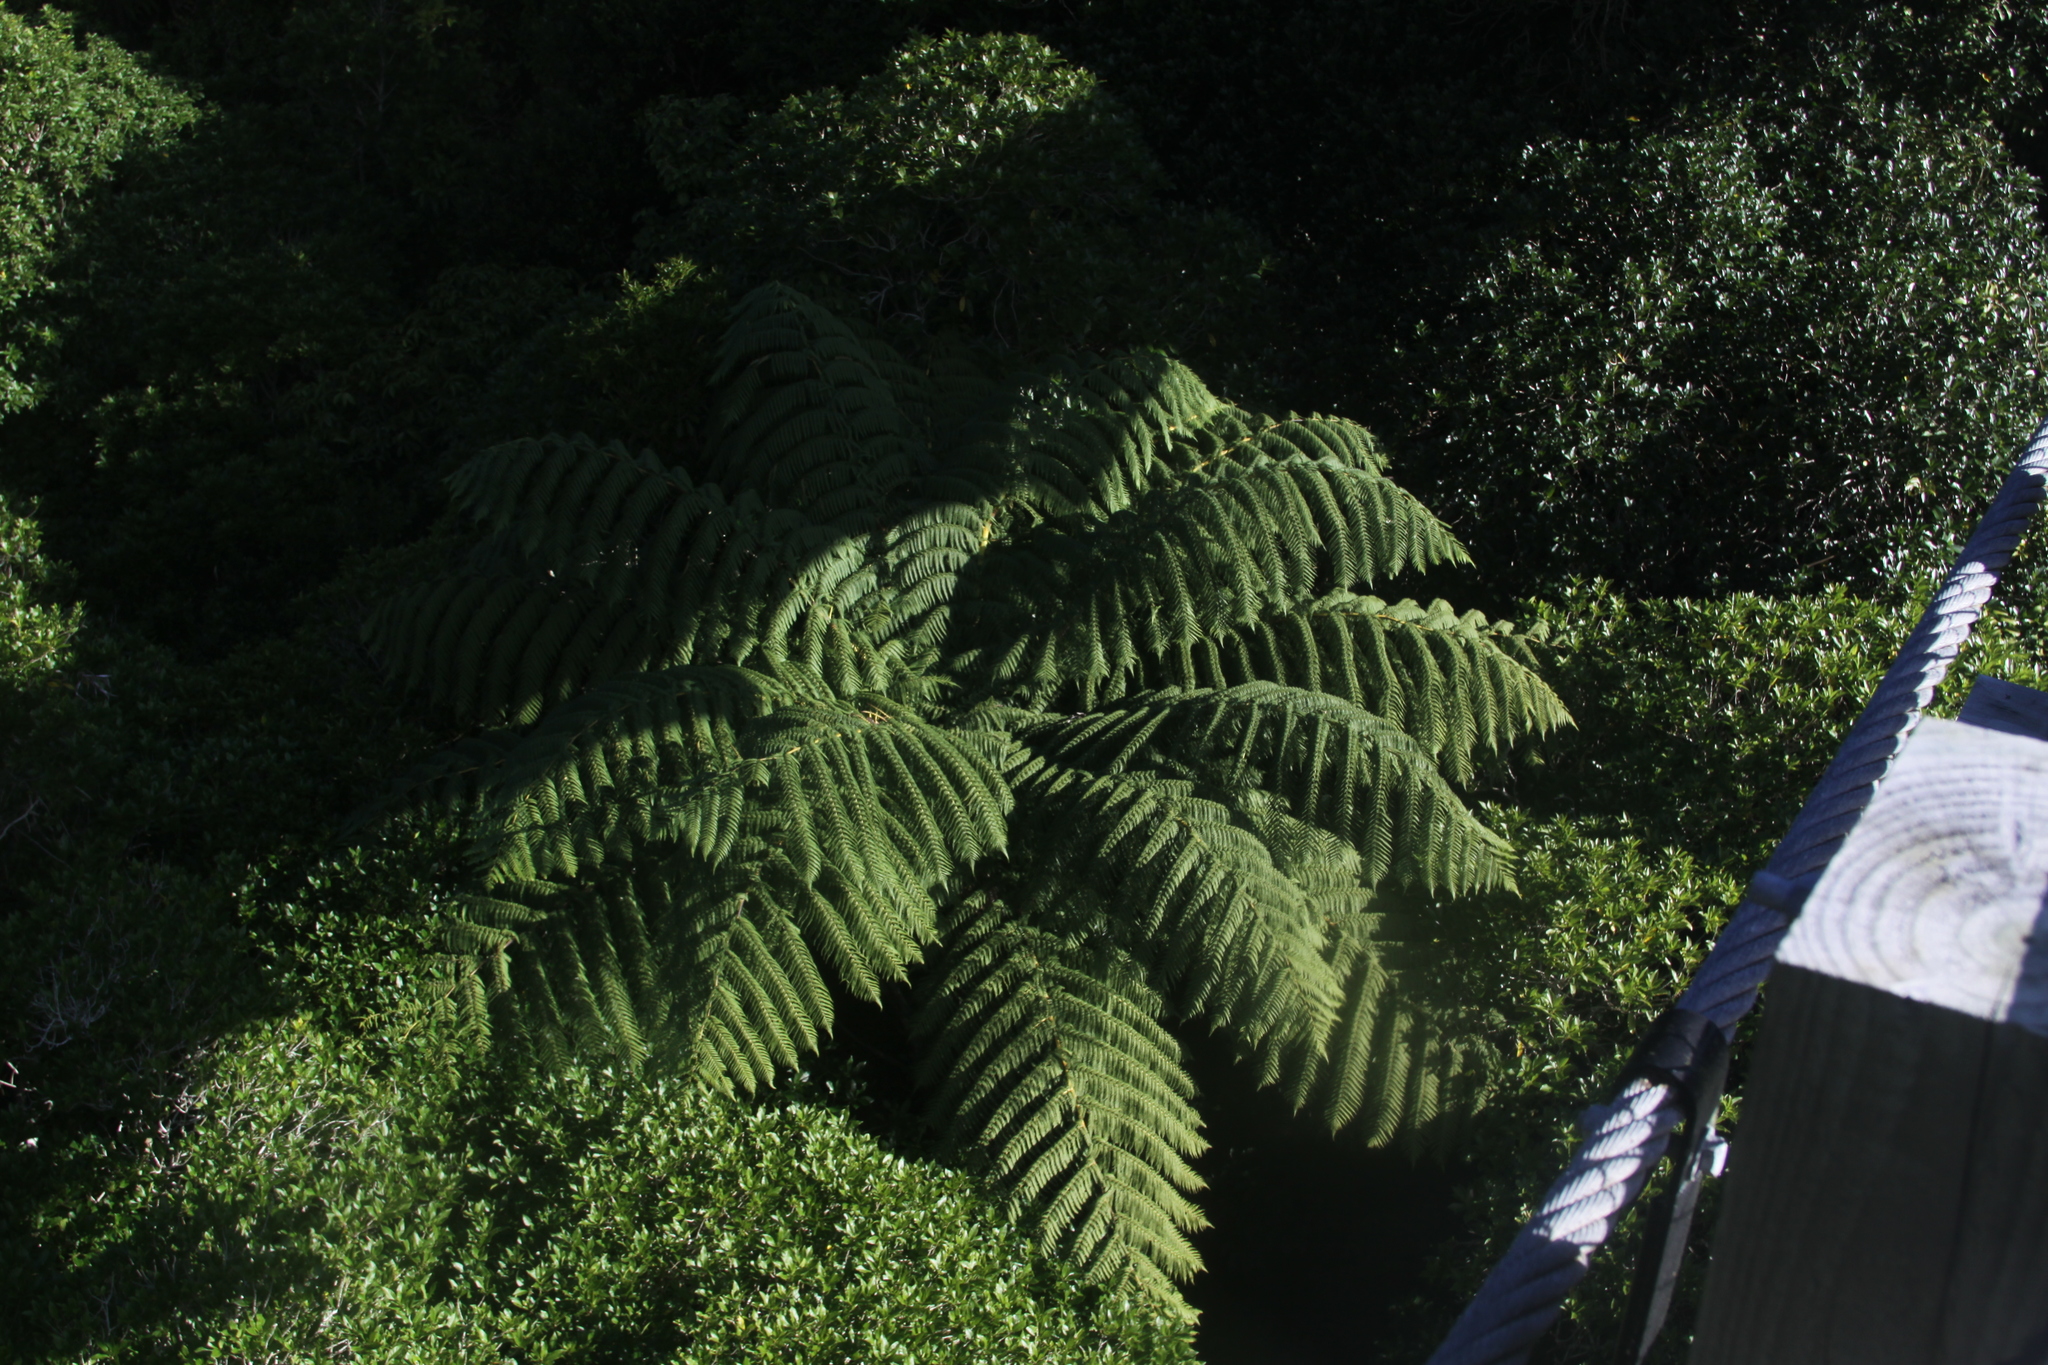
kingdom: Plantae
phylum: Tracheophyta
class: Polypodiopsida
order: Cyatheales
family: Cyatheaceae
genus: Sphaeropteris
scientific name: Sphaeropteris medullaris
